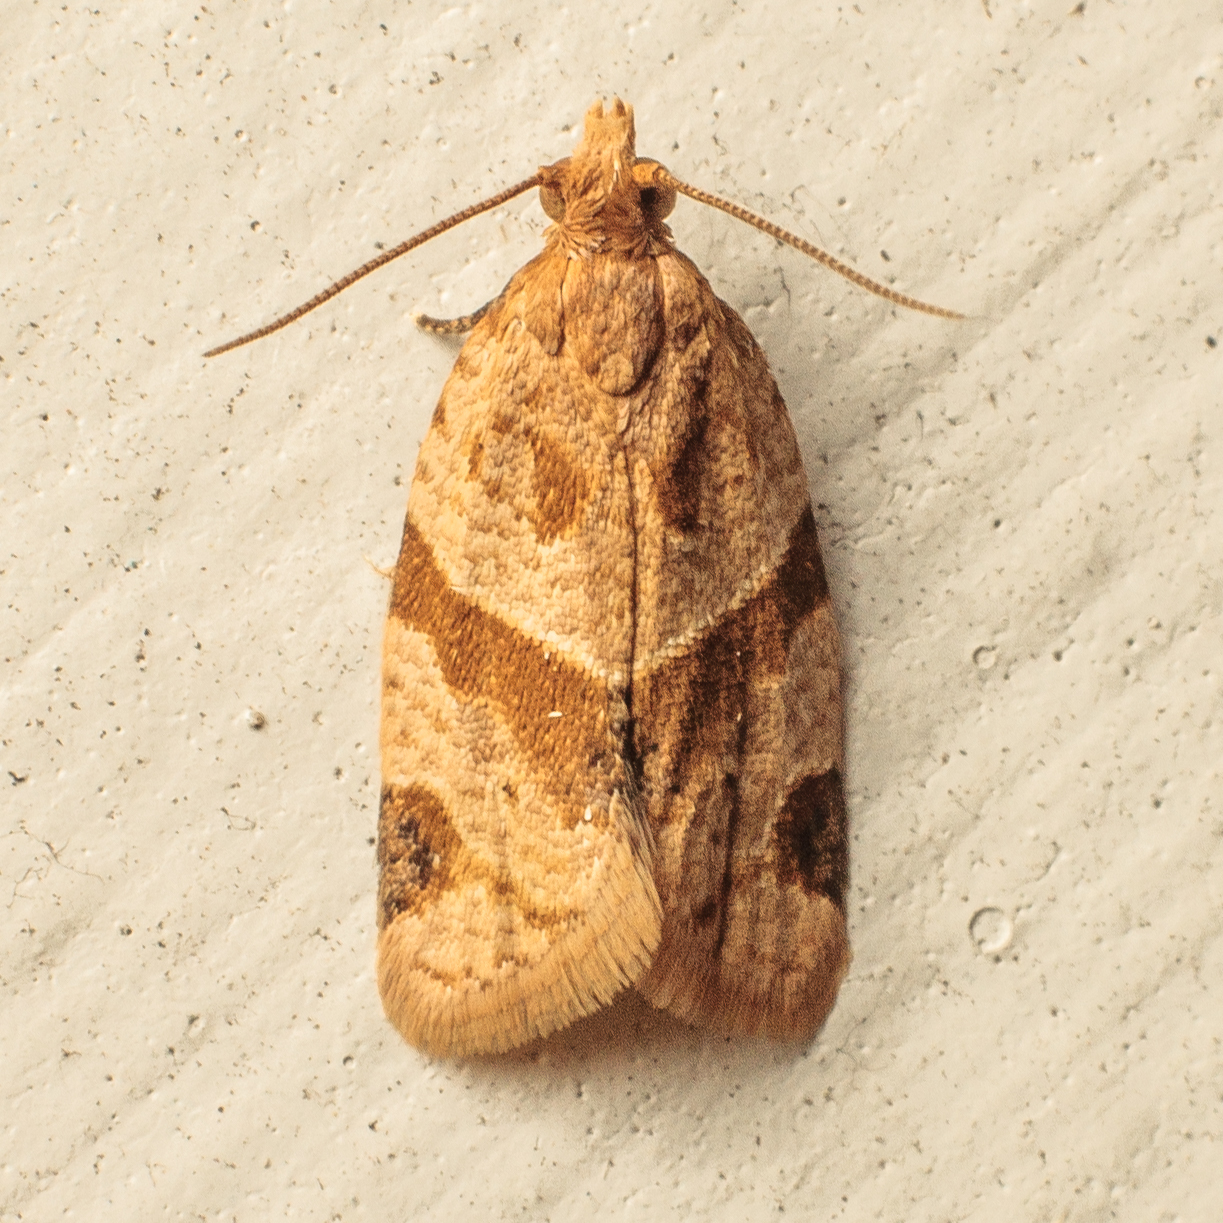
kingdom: Animalia
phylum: Arthropoda
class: Insecta
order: Lepidoptera
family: Tortricidae
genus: Clepsis
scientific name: Clepsis peritana
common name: Garden tortrix
